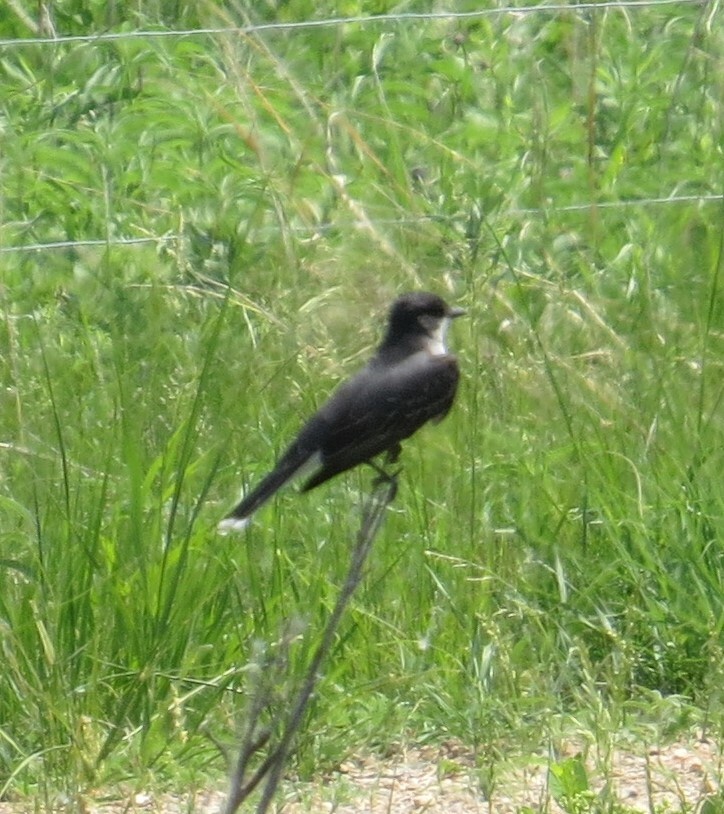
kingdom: Animalia
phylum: Chordata
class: Aves
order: Passeriformes
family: Tyrannidae
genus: Tyrannus
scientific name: Tyrannus tyrannus
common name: Eastern kingbird
